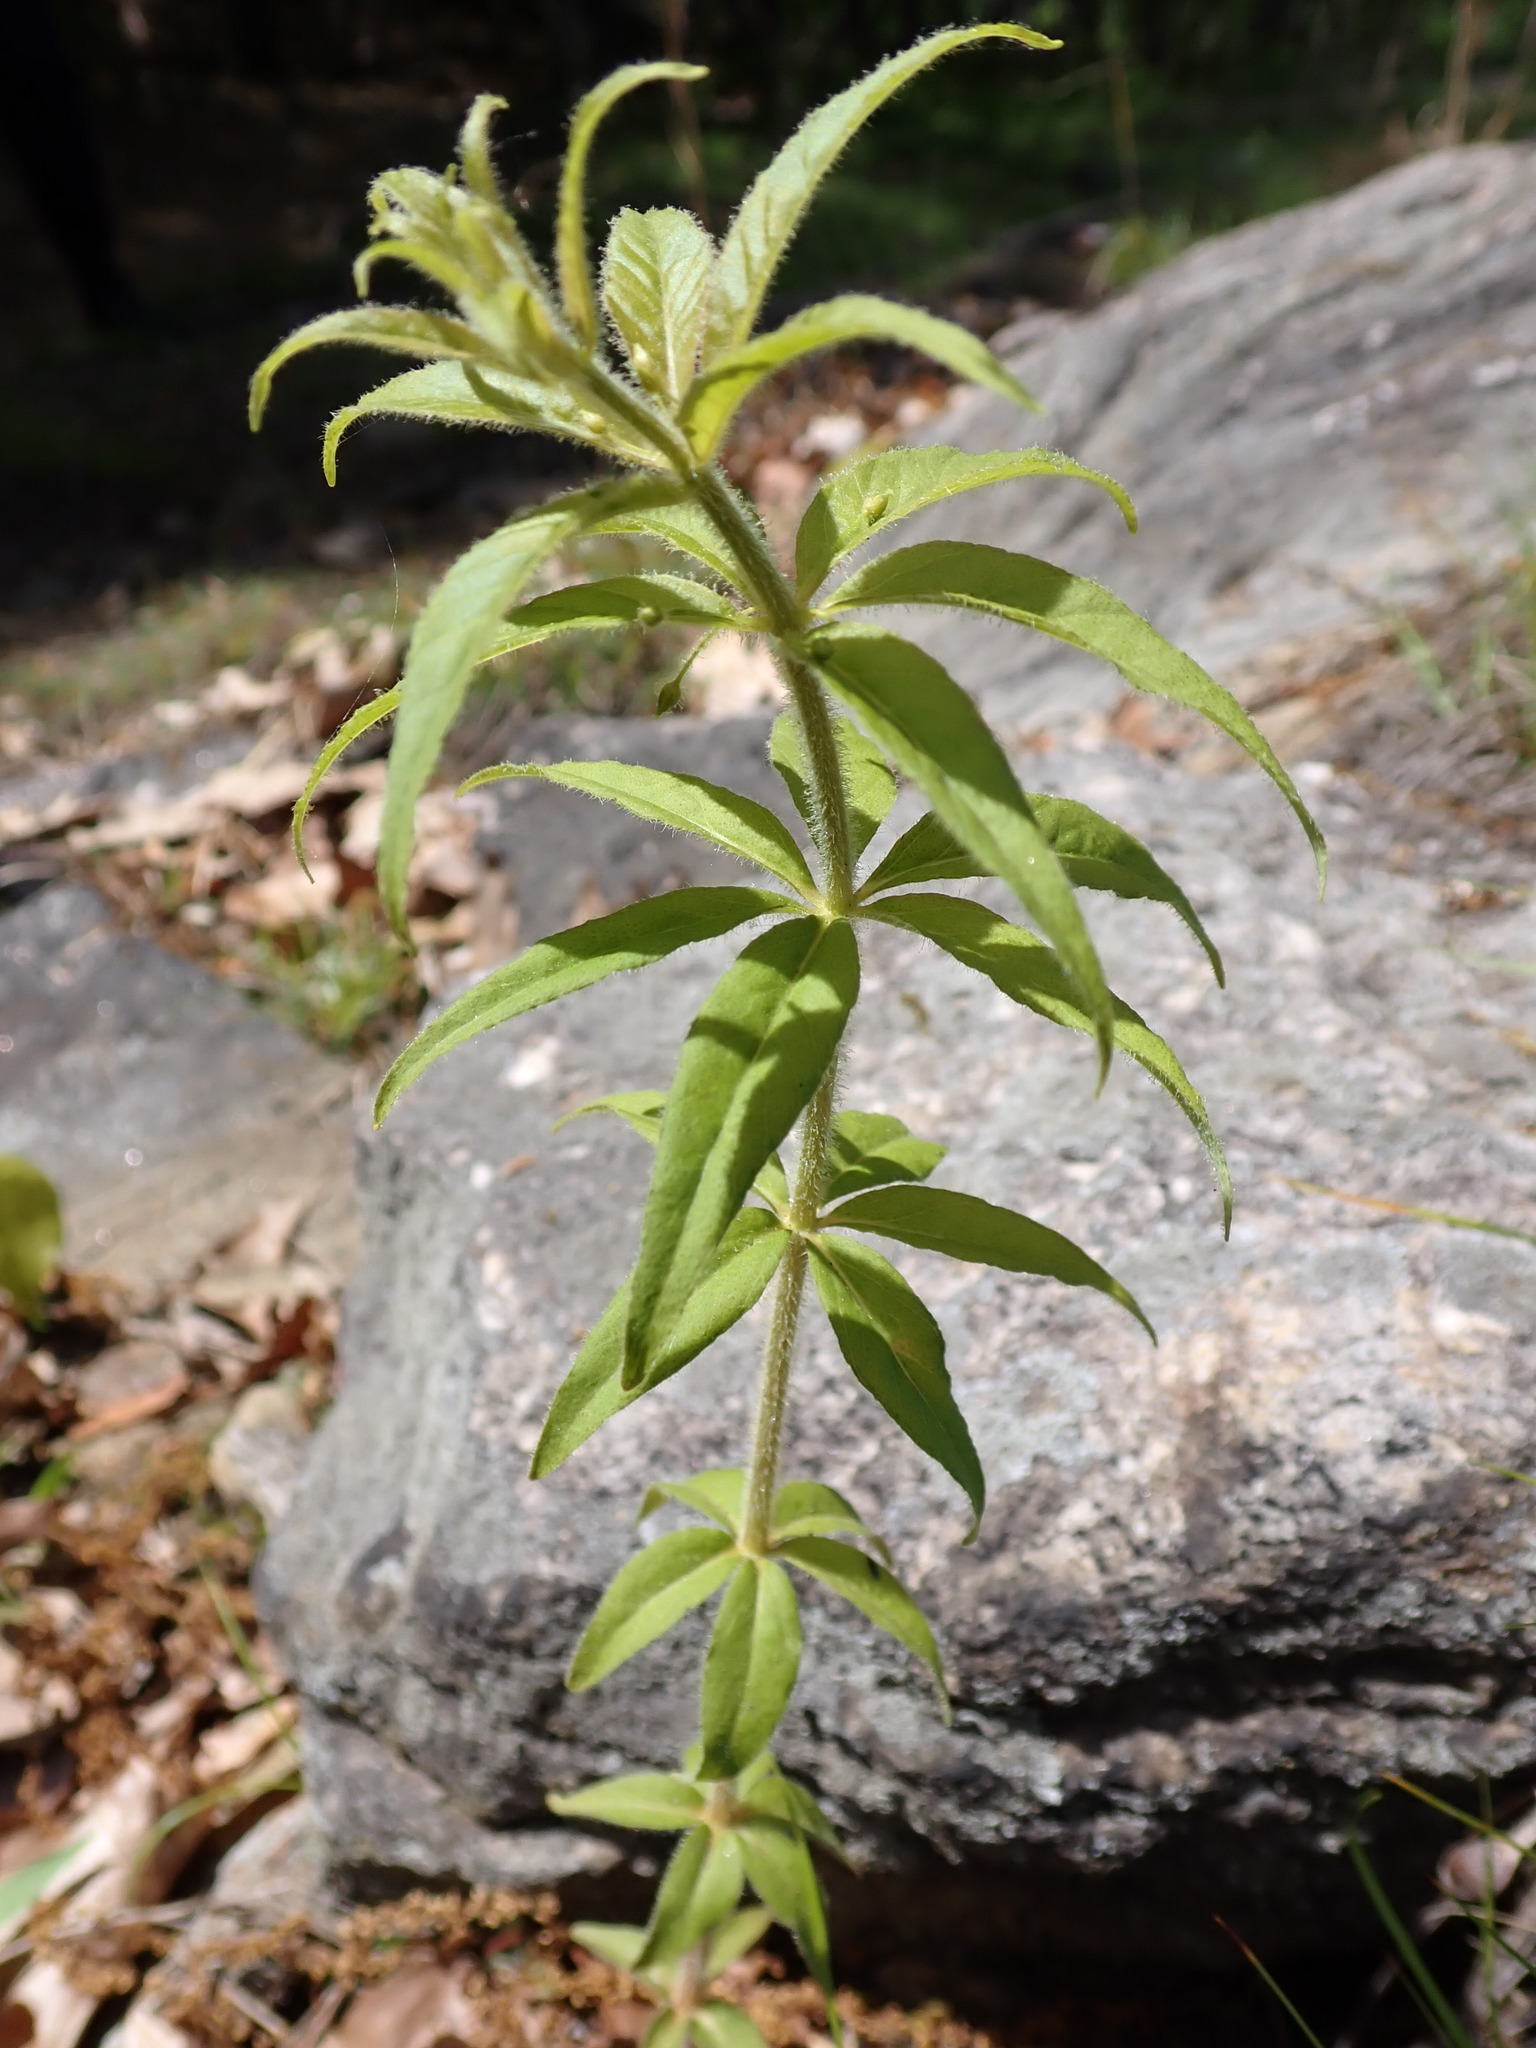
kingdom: Plantae
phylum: Tracheophyta
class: Magnoliopsida
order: Ericales
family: Primulaceae
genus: Lysimachia
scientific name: Lysimachia quadrifolia
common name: Whorled loosestrife
